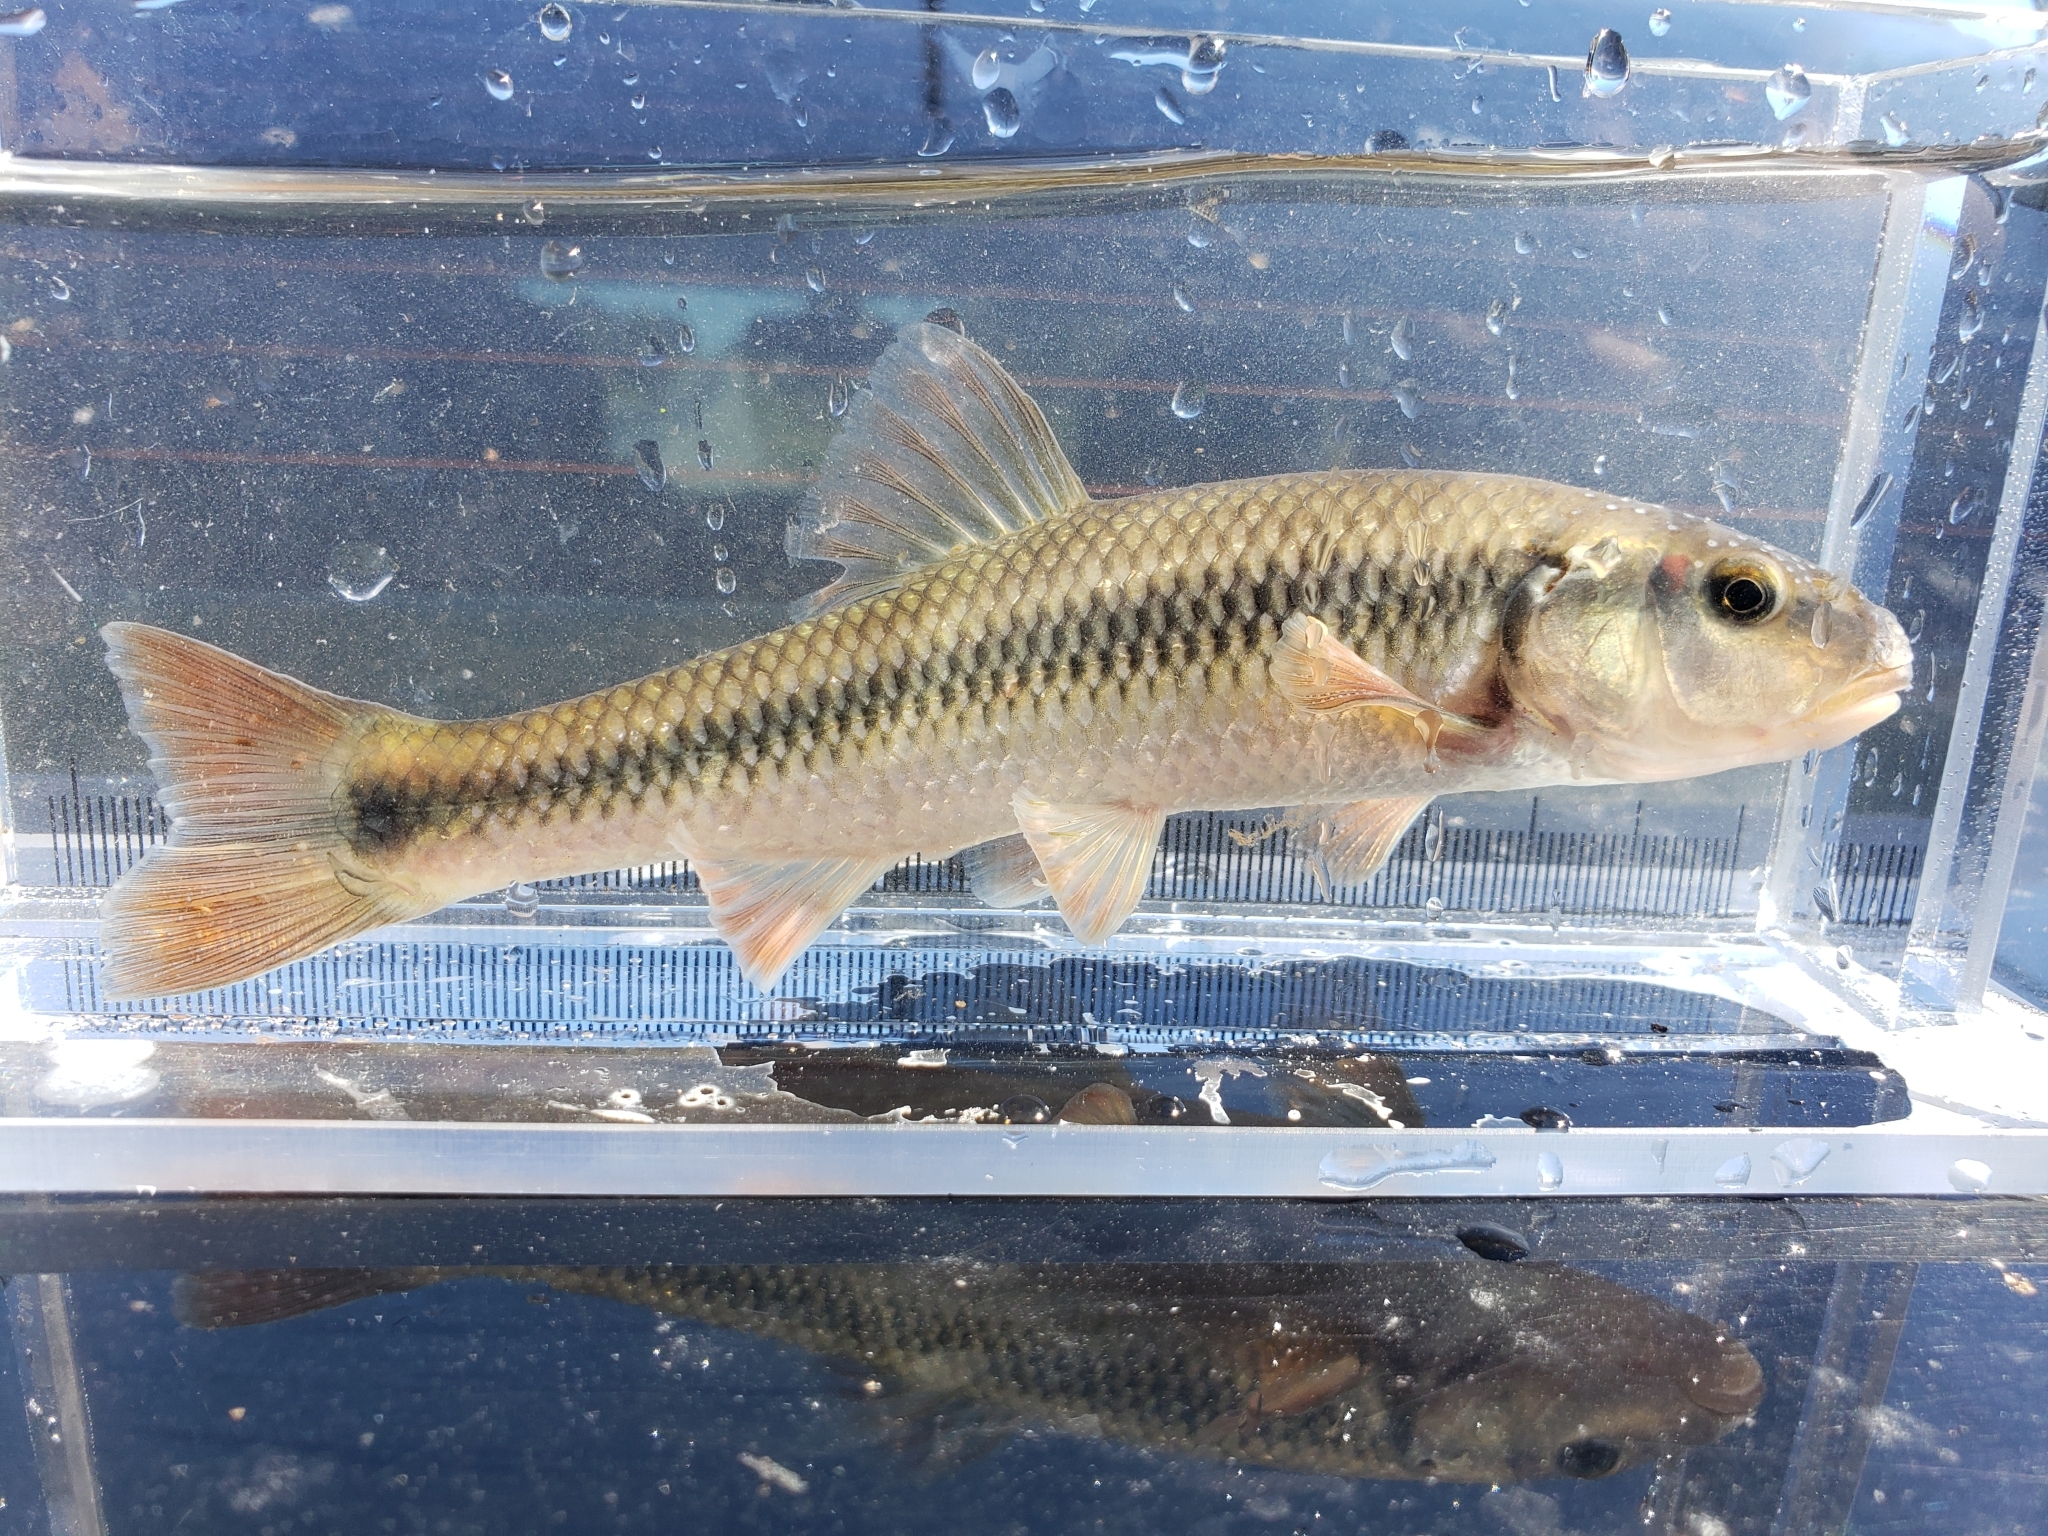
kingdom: Animalia
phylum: Chordata
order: Cypriniformes
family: Cyprinidae
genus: Nocomis
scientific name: Nocomis biguttatus
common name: Hornyhead chub
